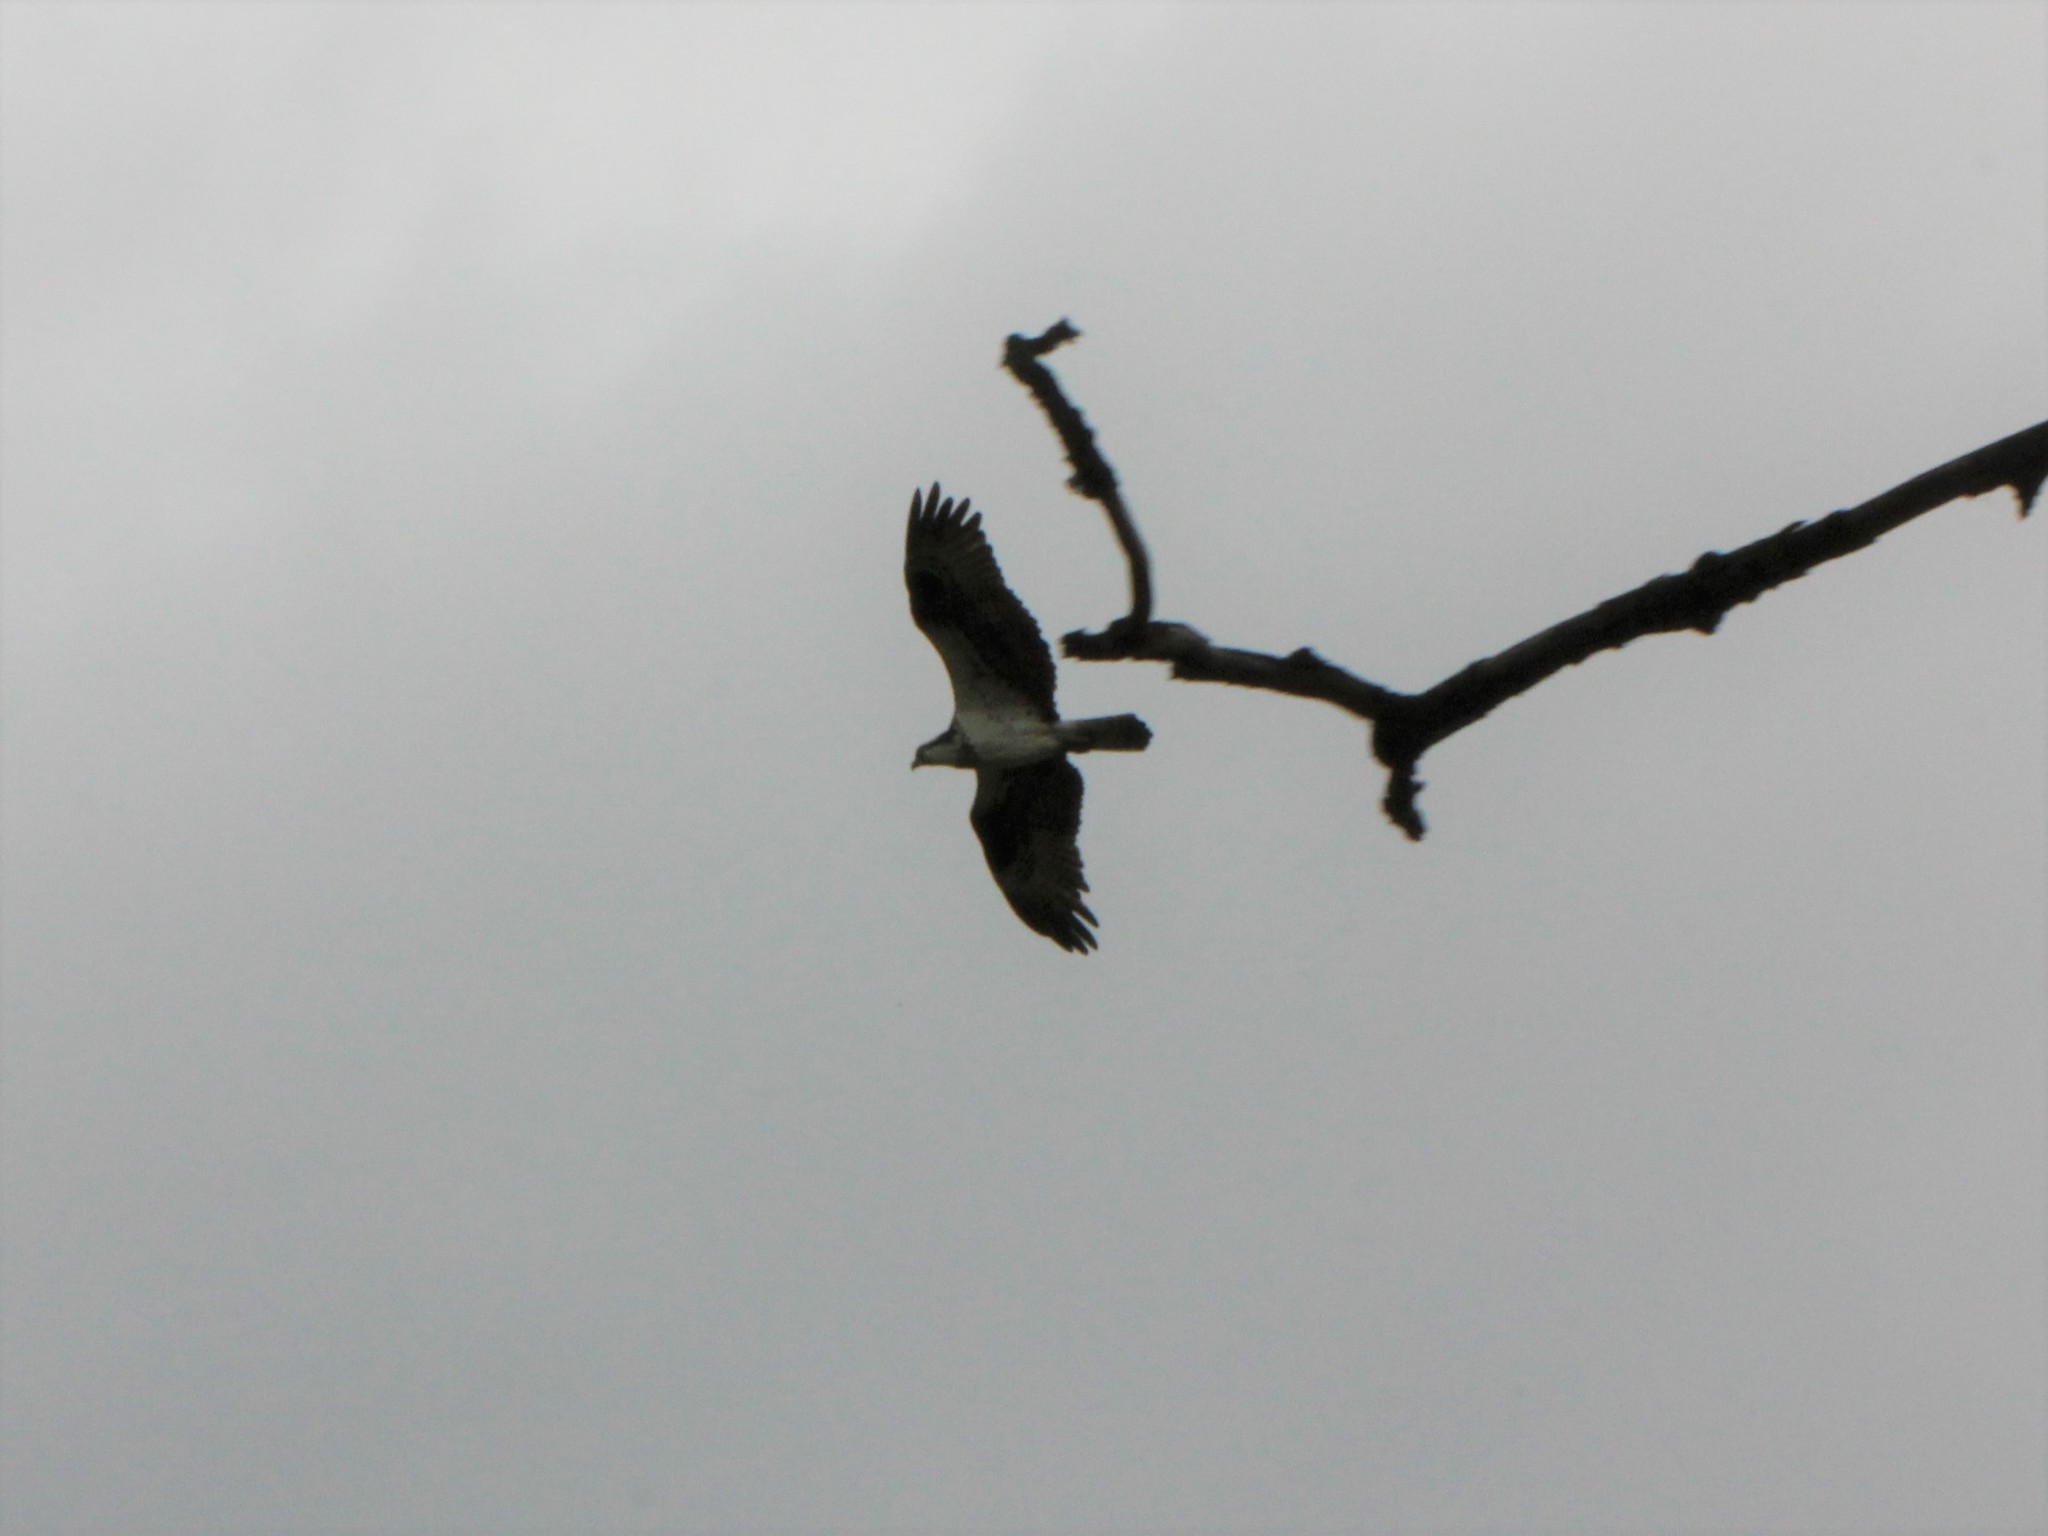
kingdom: Animalia
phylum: Chordata
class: Aves
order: Accipitriformes
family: Pandionidae
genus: Pandion
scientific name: Pandion haliaetus
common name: Osprey
